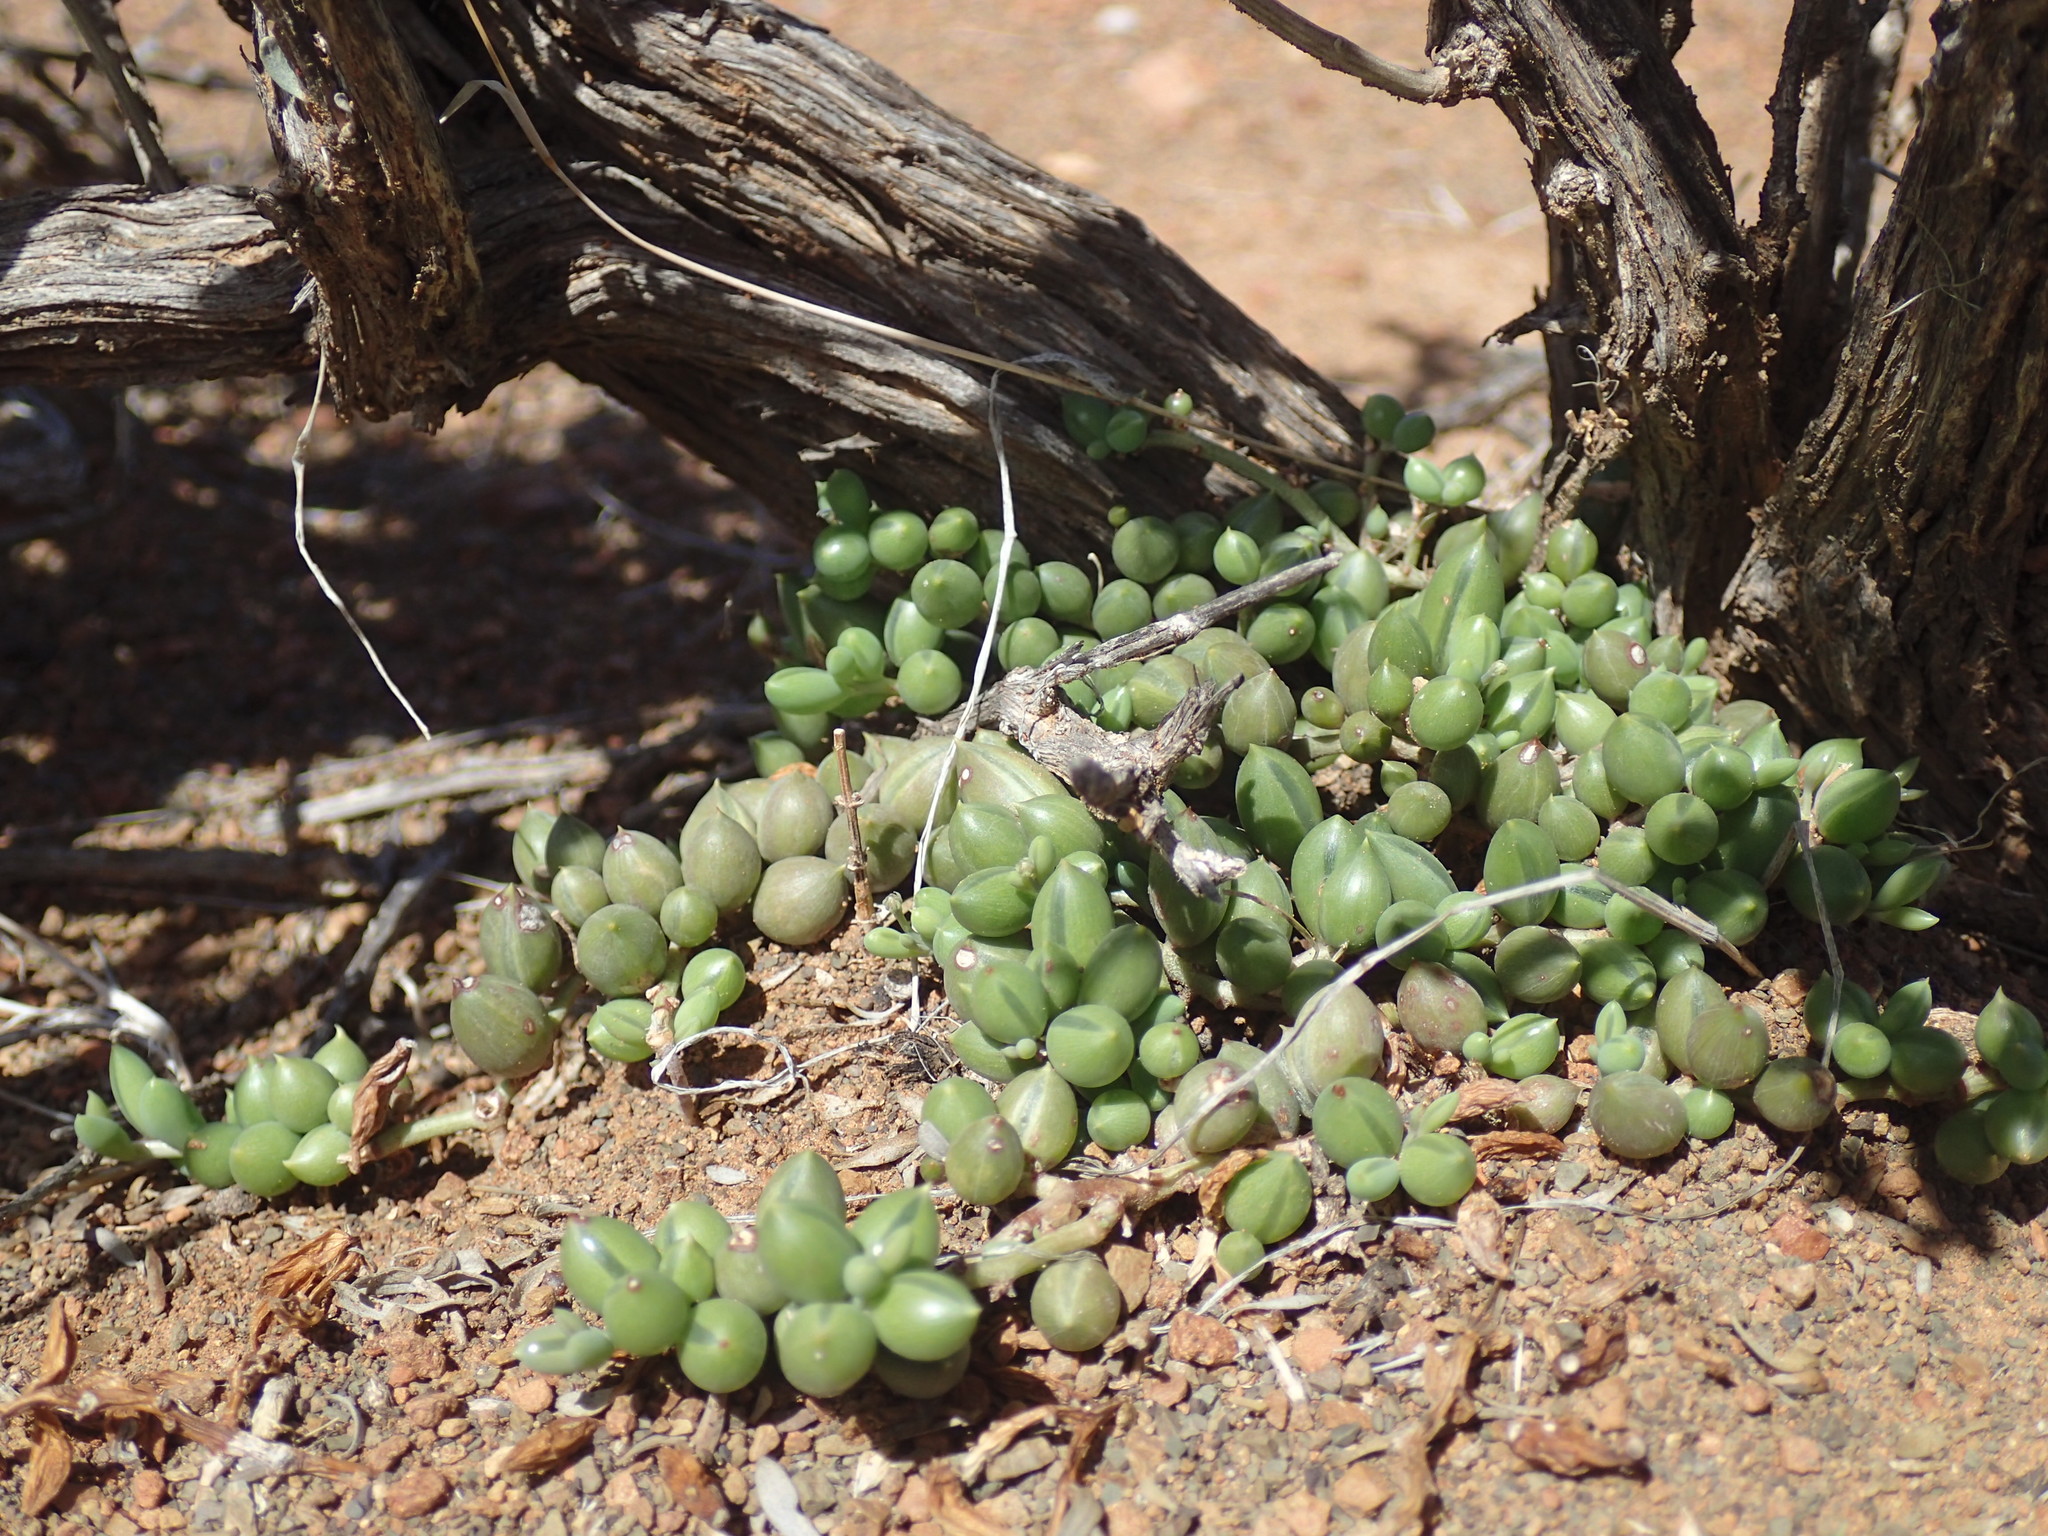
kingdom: Plantae
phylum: Tracheophyta
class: Magnoliopsida
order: Asterales
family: Asteraceae
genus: Curio
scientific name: Curio radicans
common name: Creeping-berry
